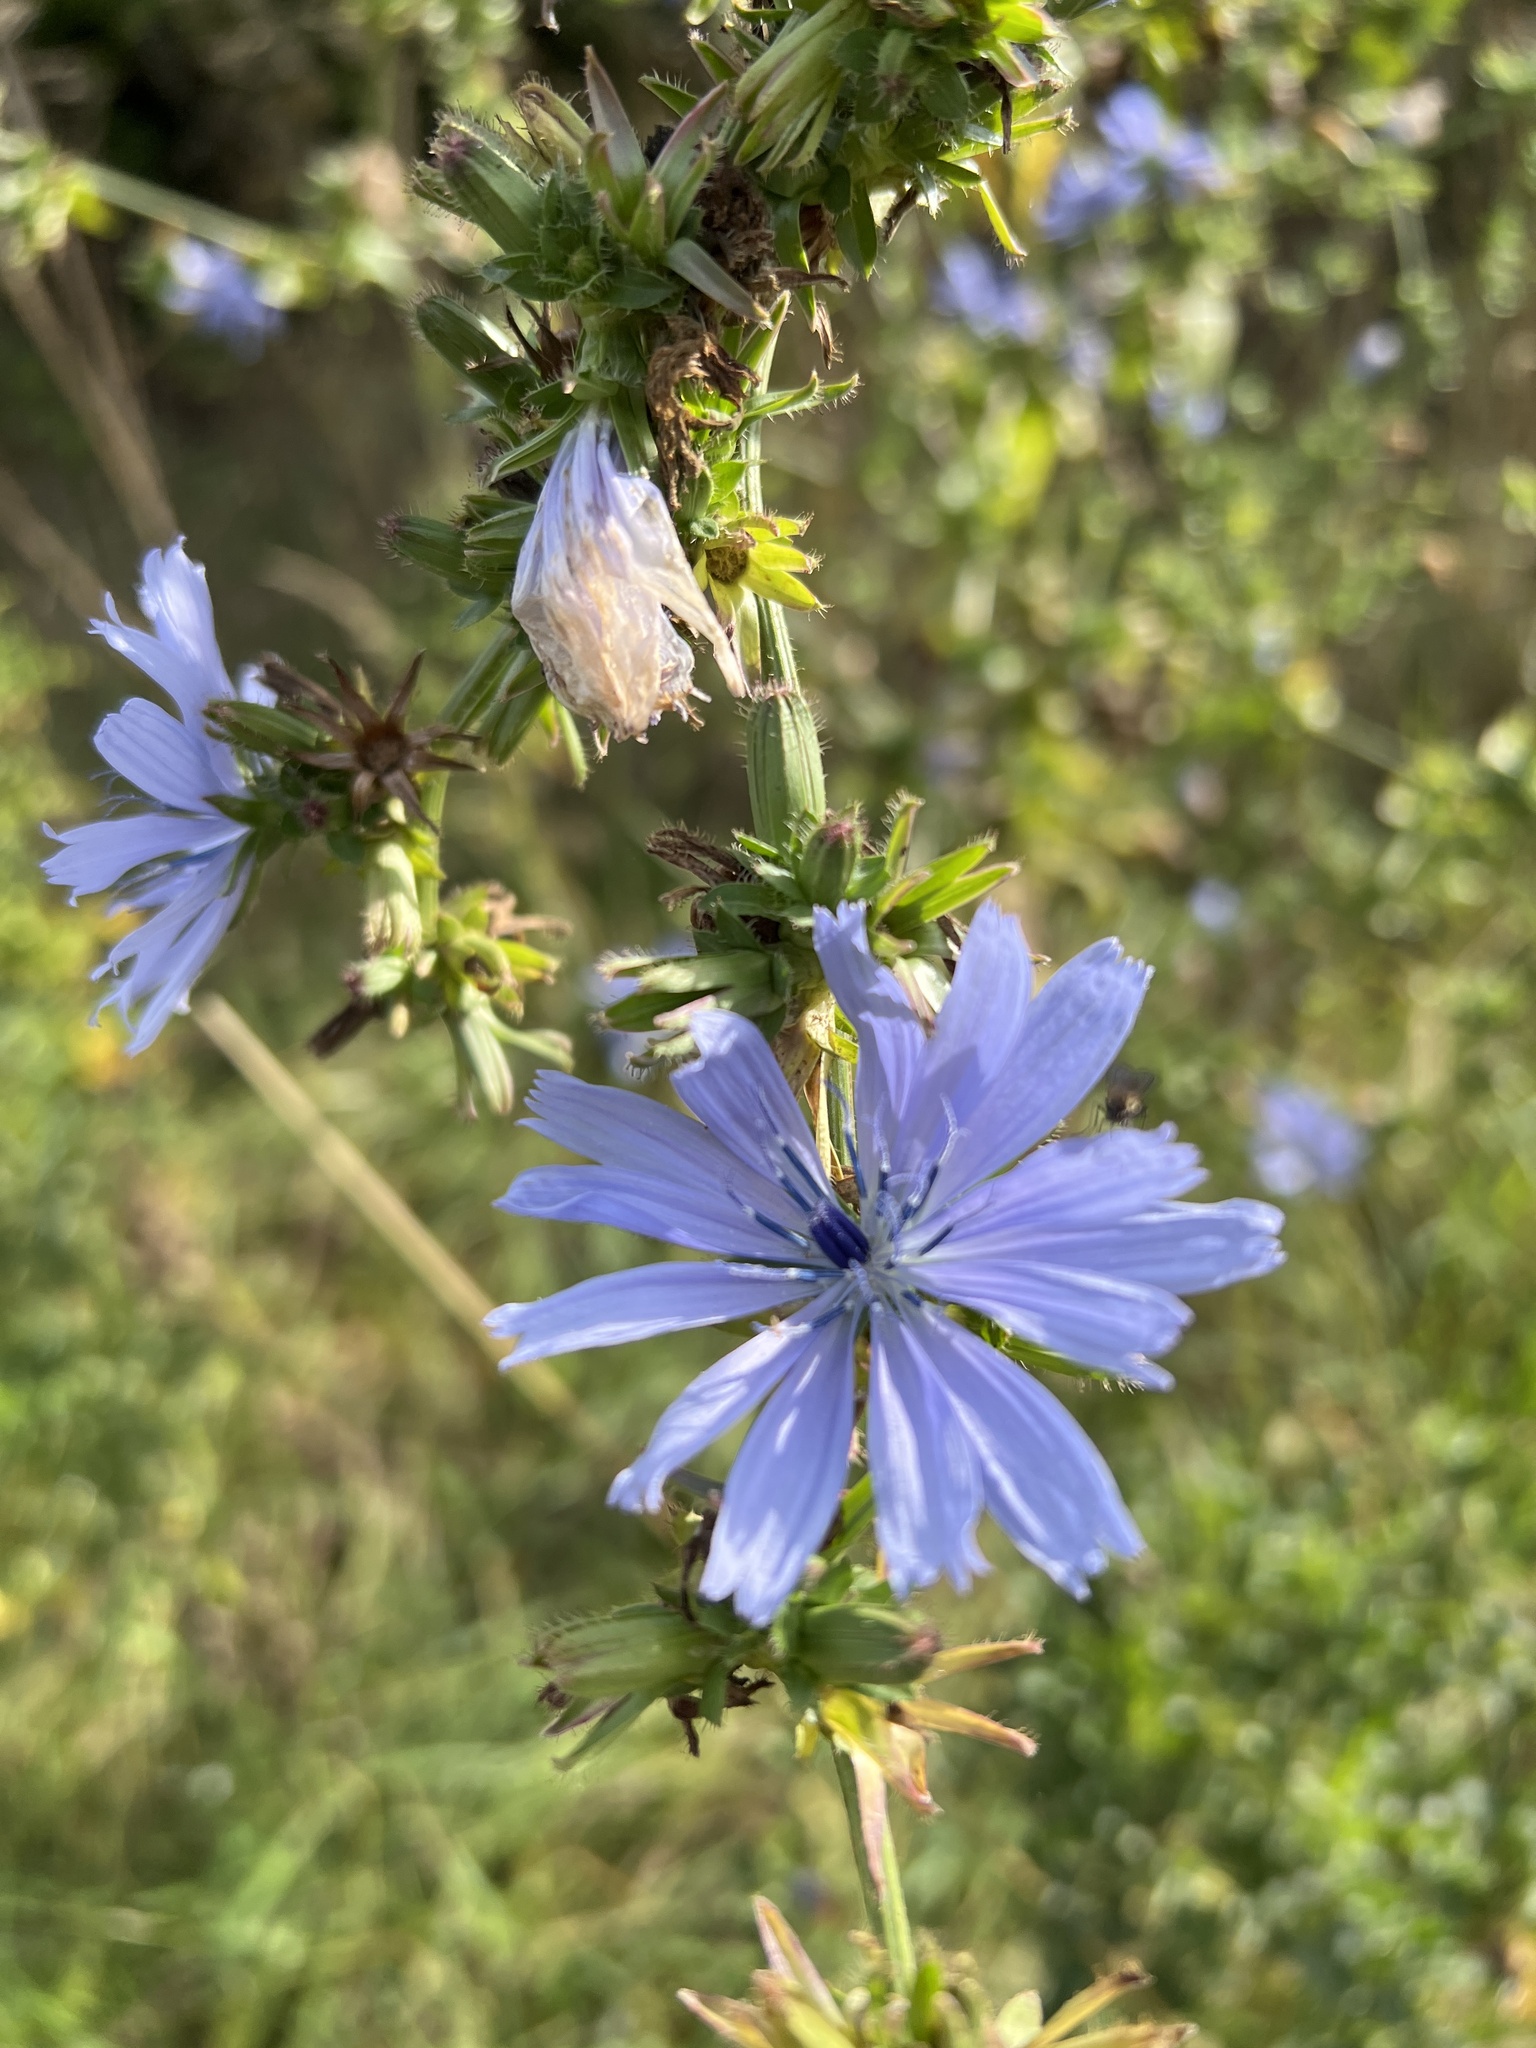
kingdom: Plantae
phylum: Tracheophyta
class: Magnoliopsida
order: Asterales
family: Asteraceae
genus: Cichorium
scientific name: Cichorium intybus
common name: Chicory
